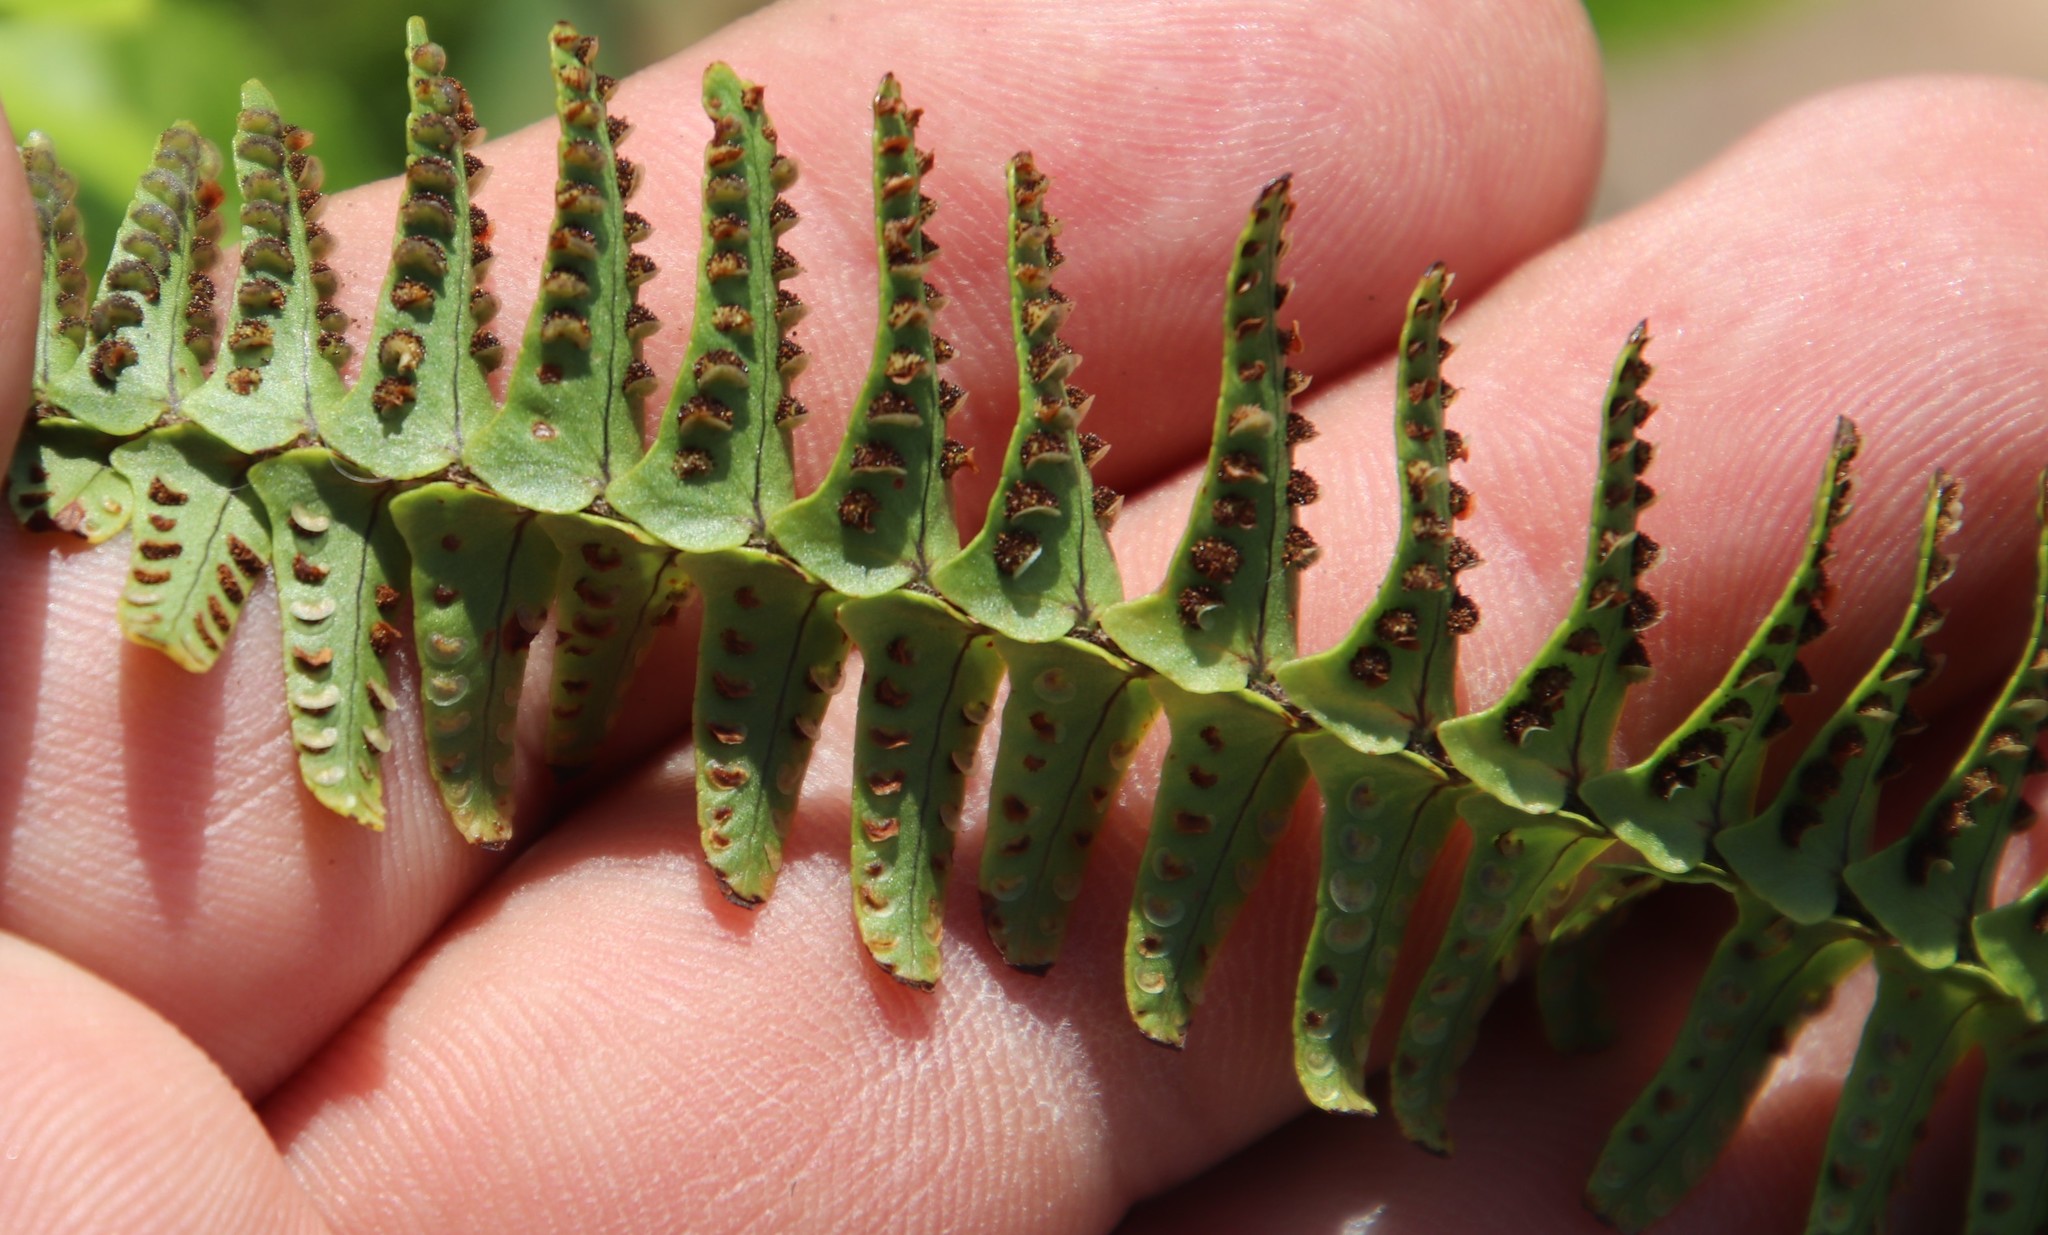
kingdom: Plantae
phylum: Tracheophyta
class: Polypodiopsida
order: Polypodiales
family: Nephrolepidaceae
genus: Nephrolepis
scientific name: Nephrolepis cordifolia
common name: Narrow swordfern
